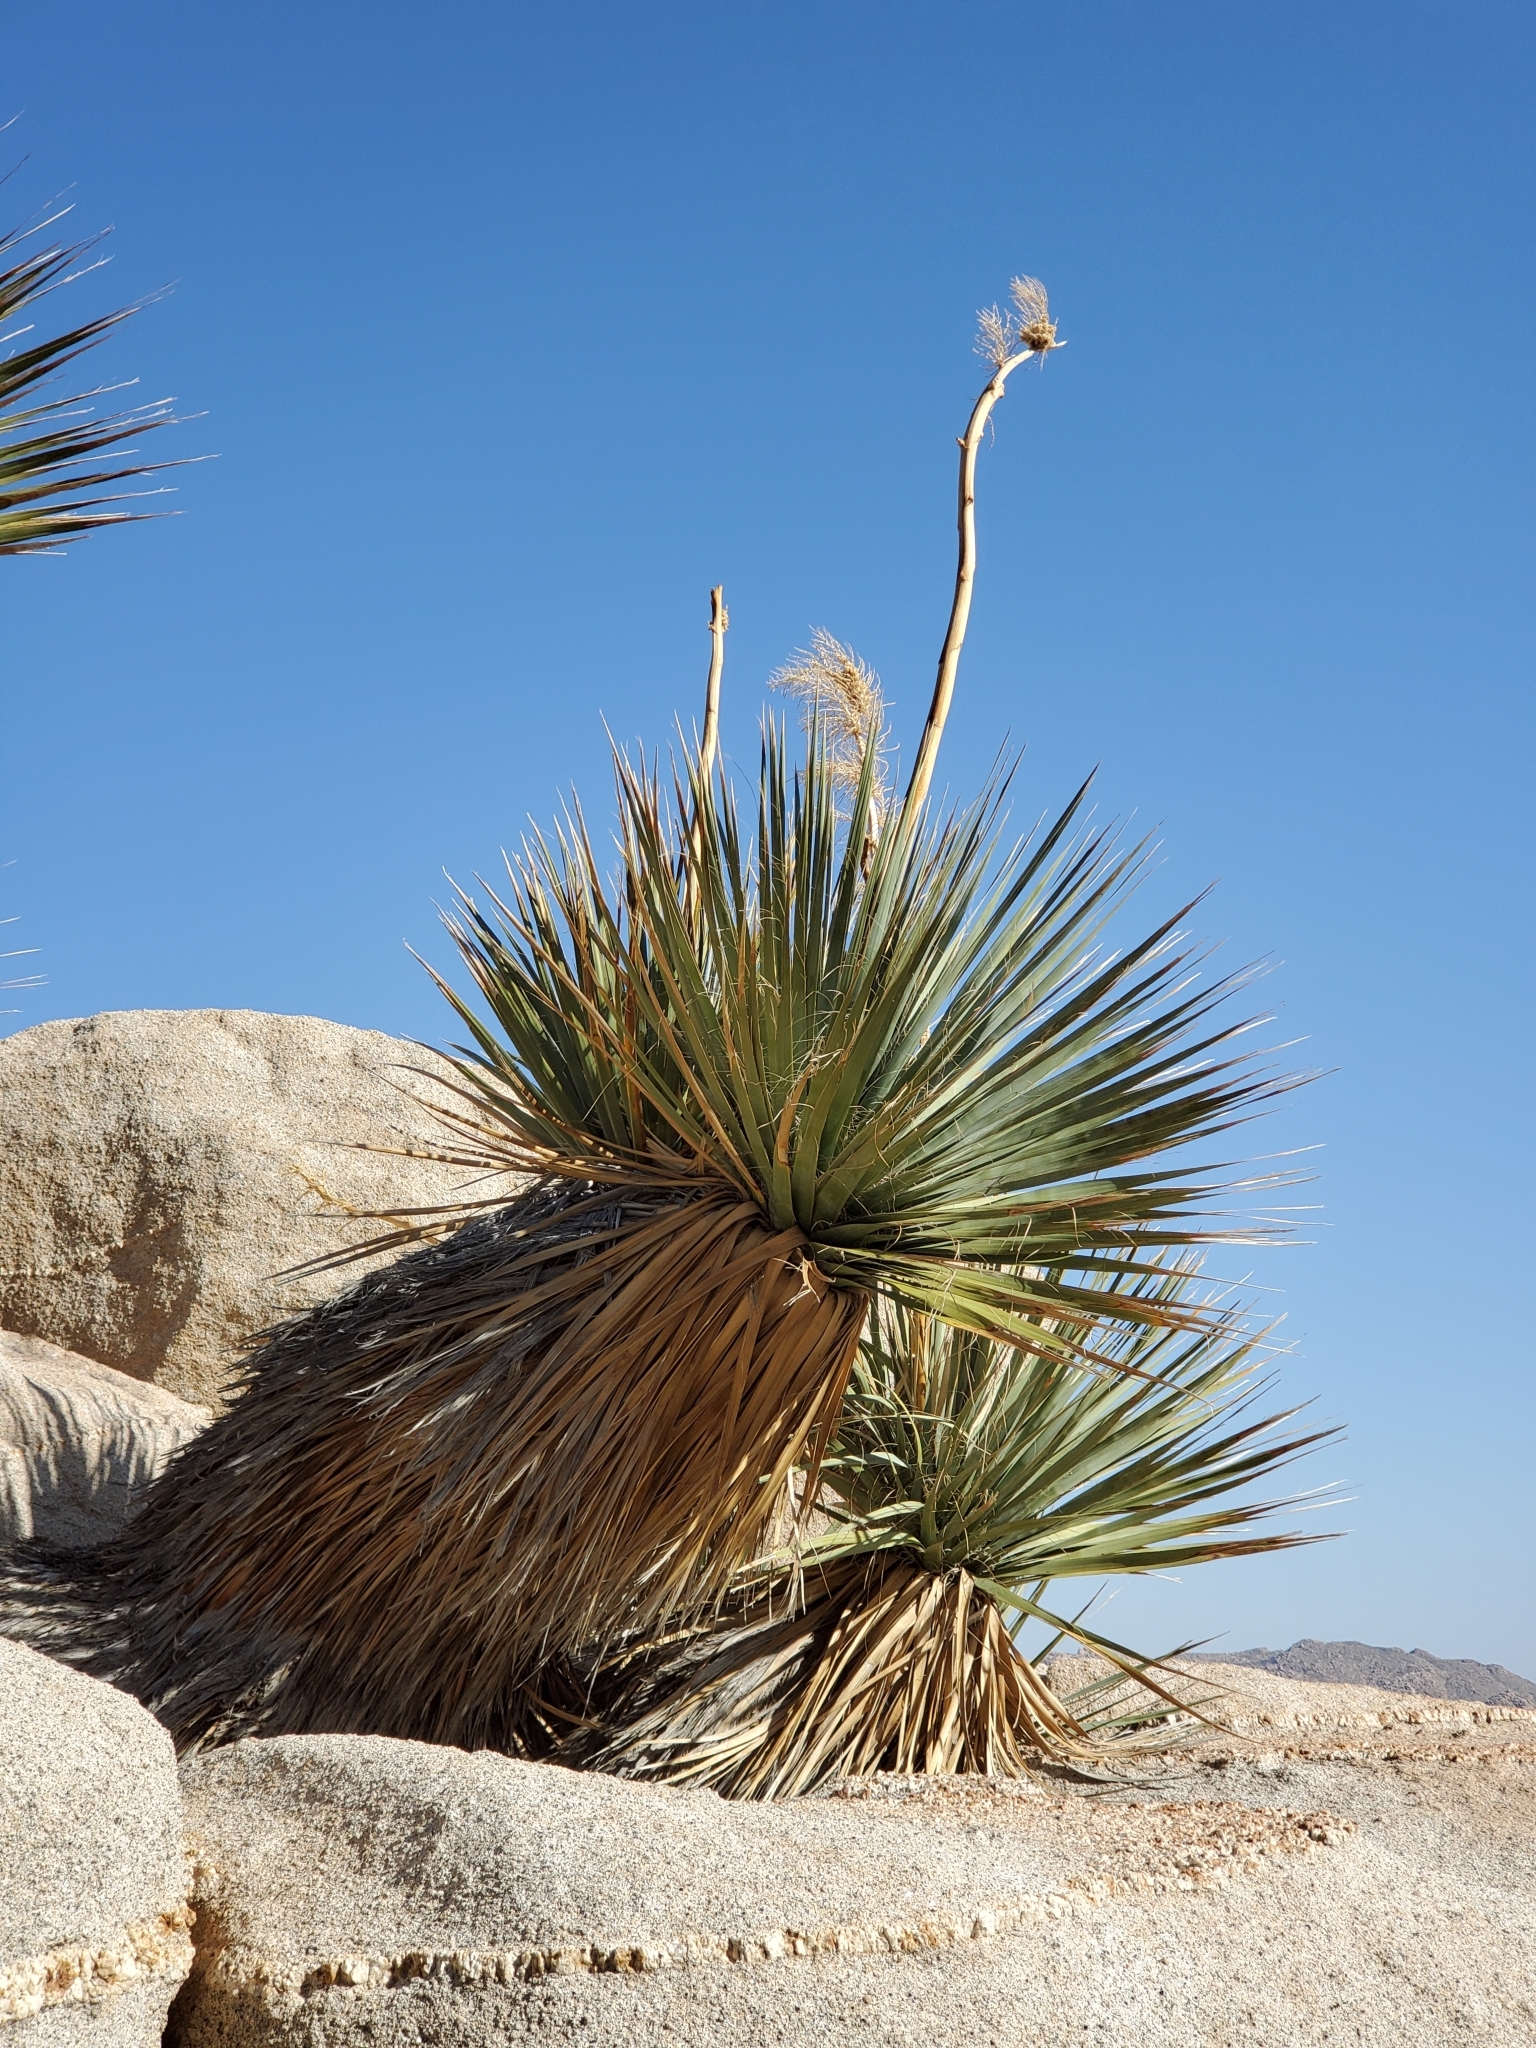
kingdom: Plantae
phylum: Tracheophyta
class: Liliopsida
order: Asparagales
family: Asparagaceae
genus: Nolina
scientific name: Nolina bigelovii
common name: Bigelow bear-grass
